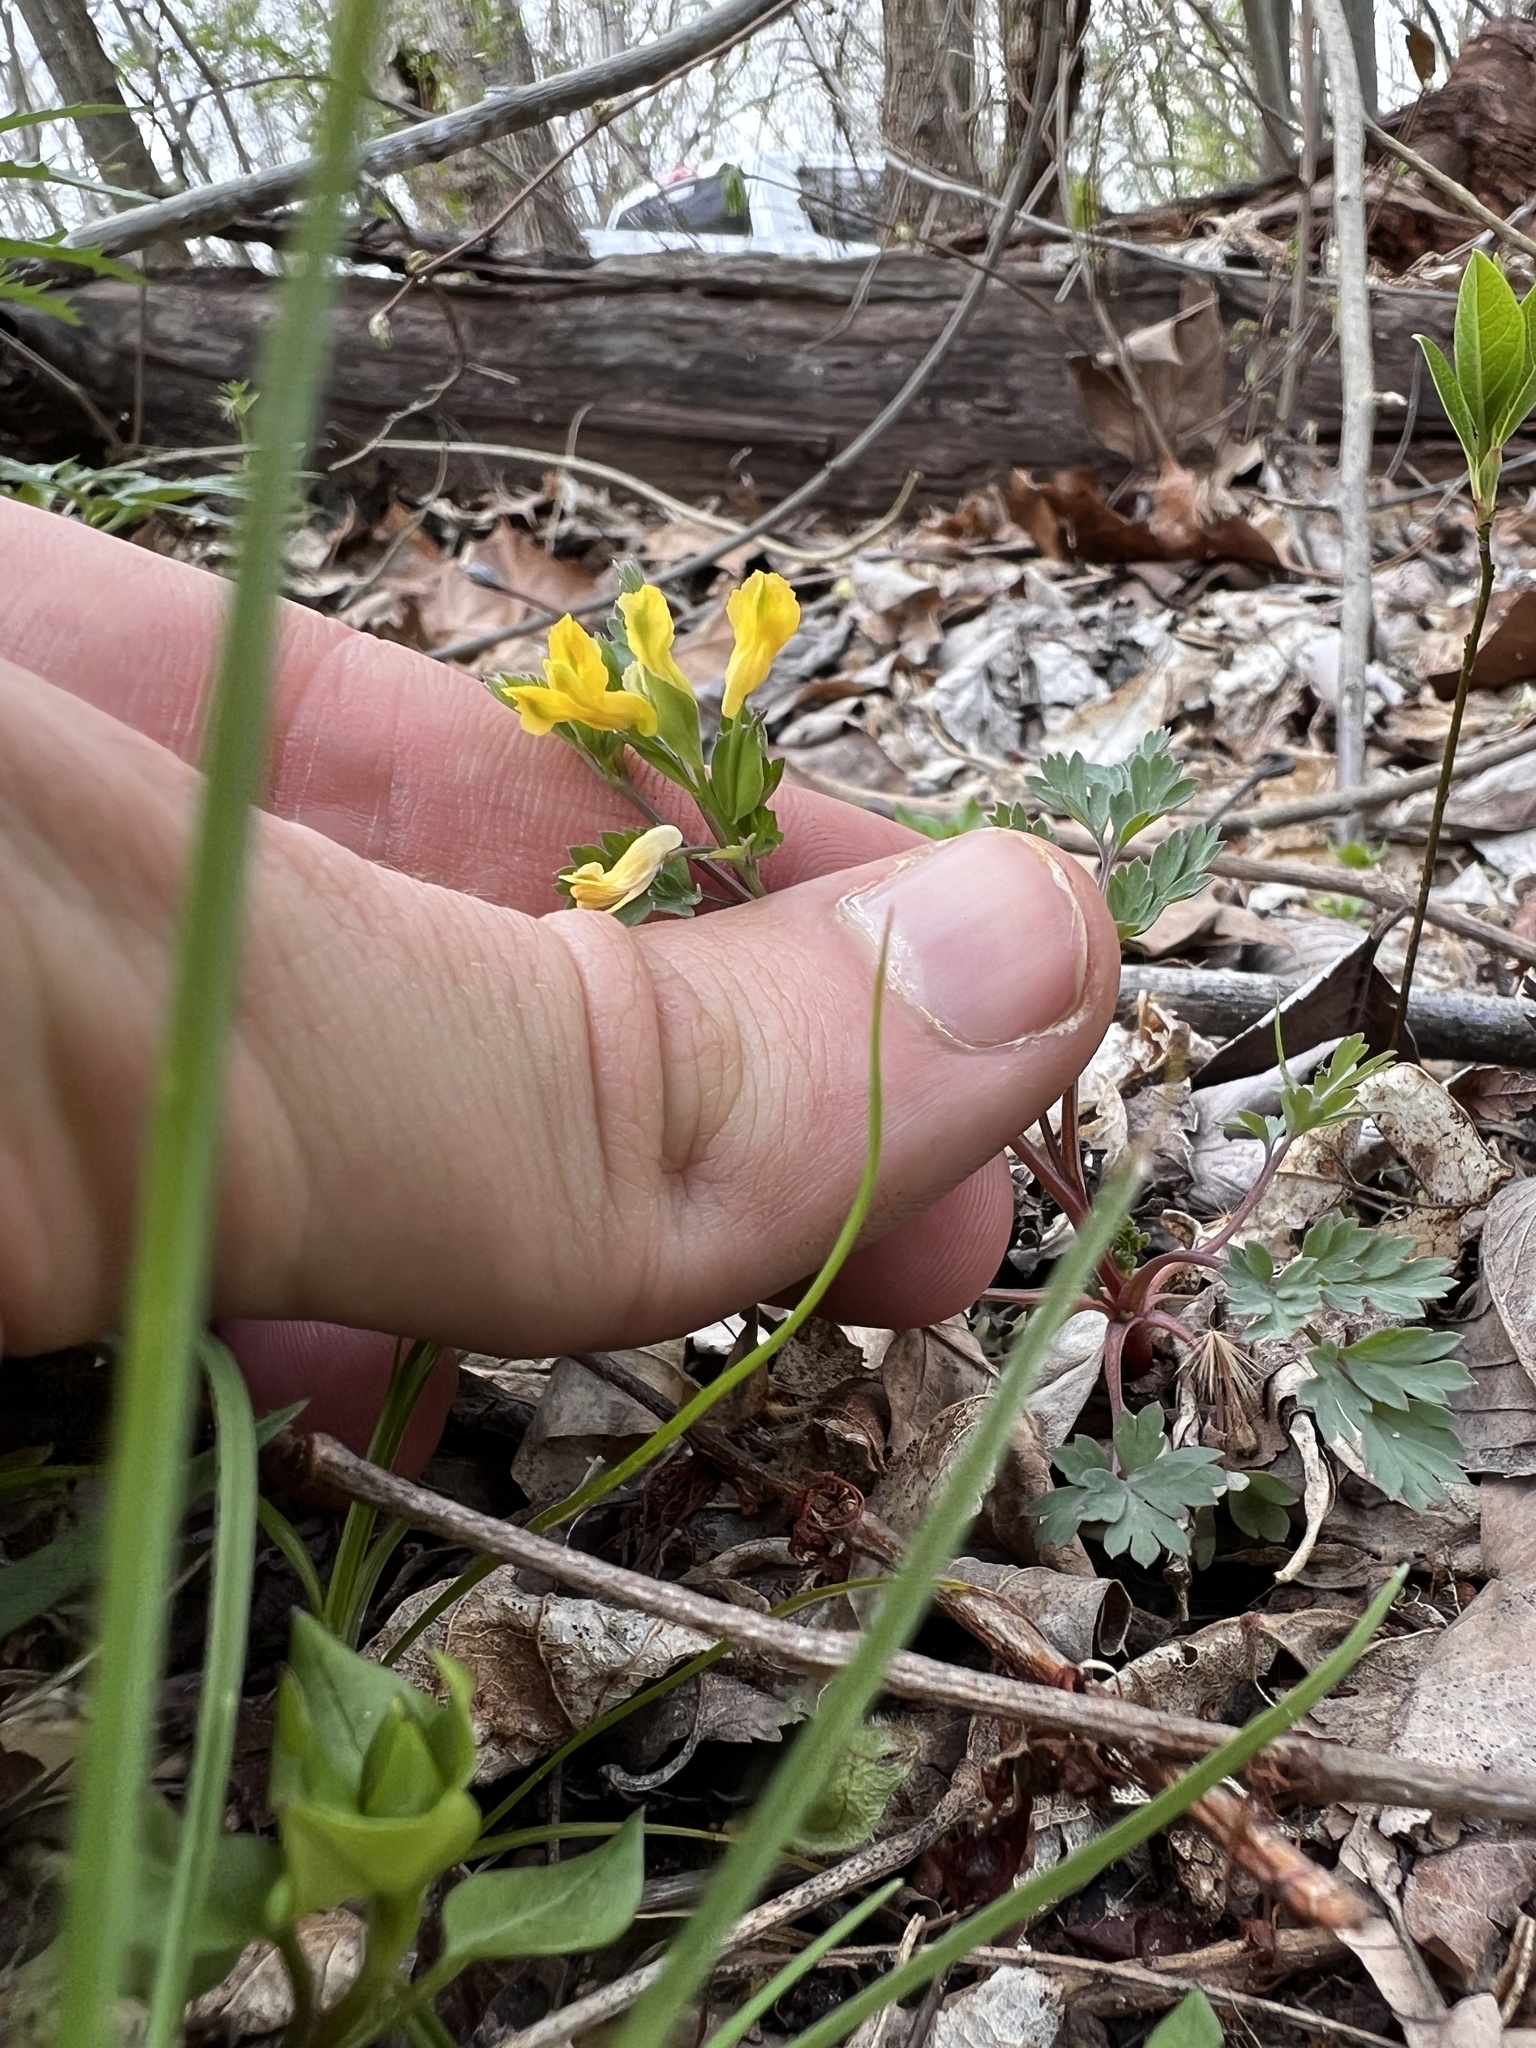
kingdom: Plantae
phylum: Tracheophyta
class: Magnoliopsida
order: Ranunculales
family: Papaveraceae
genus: Corydalis
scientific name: Corydalis flavula
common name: Yellow corydalis
